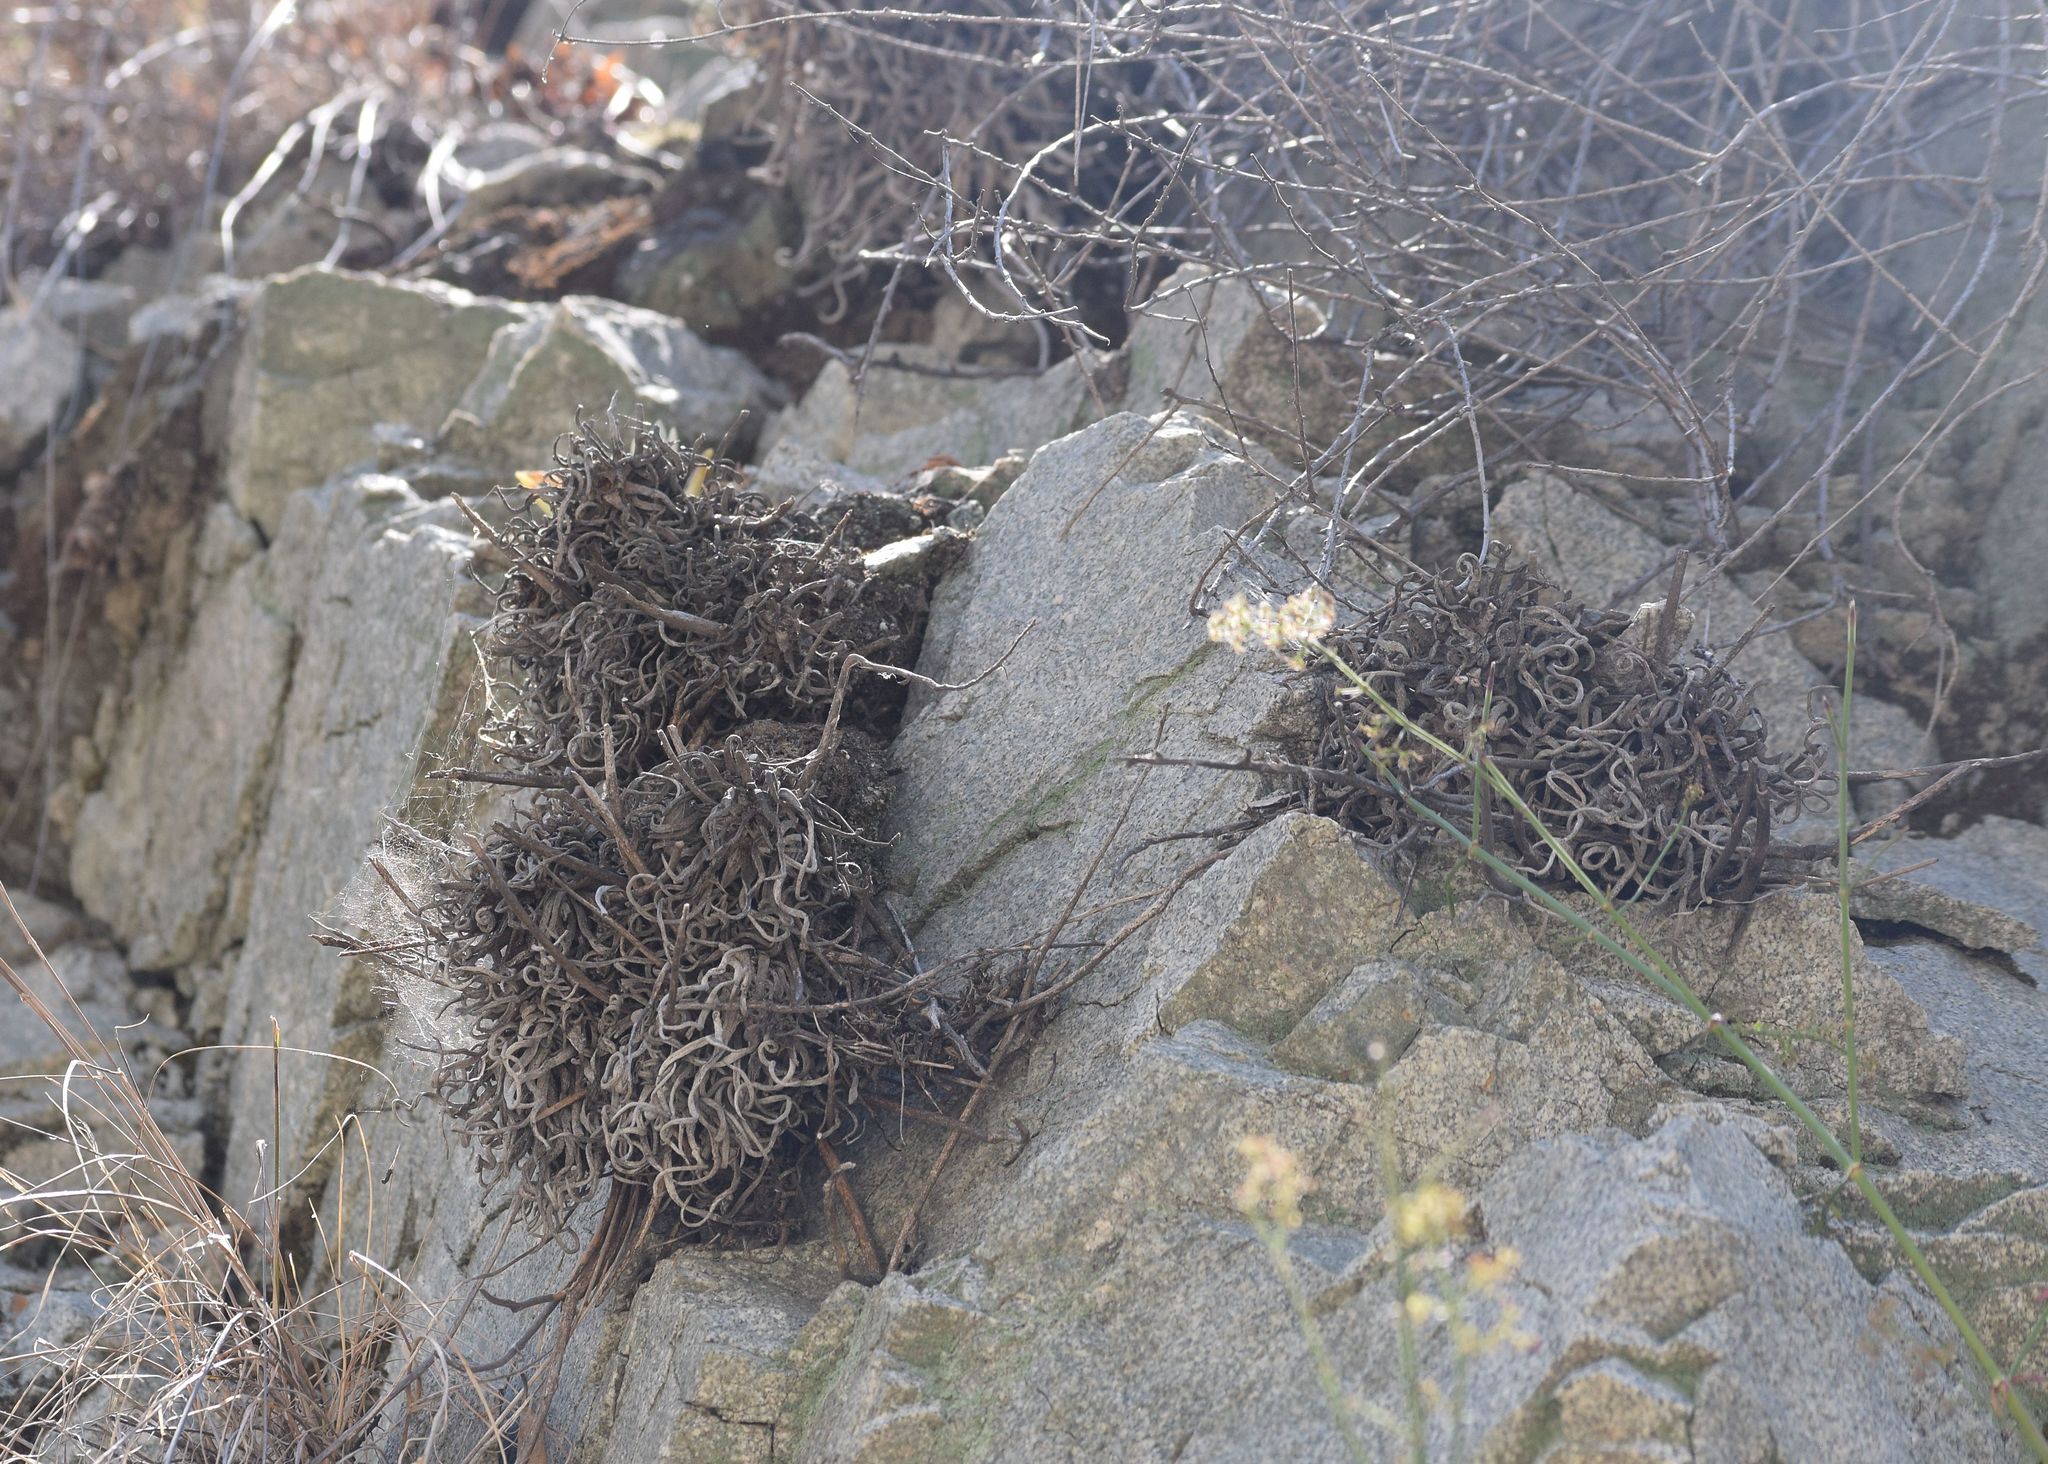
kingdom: Plantae
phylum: Tracheophyta
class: Magnoliopsida
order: Saxifragales
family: Crassulaceae
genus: Dudleya
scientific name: Dudleya densiflora
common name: San gabriel mountains dudleya
